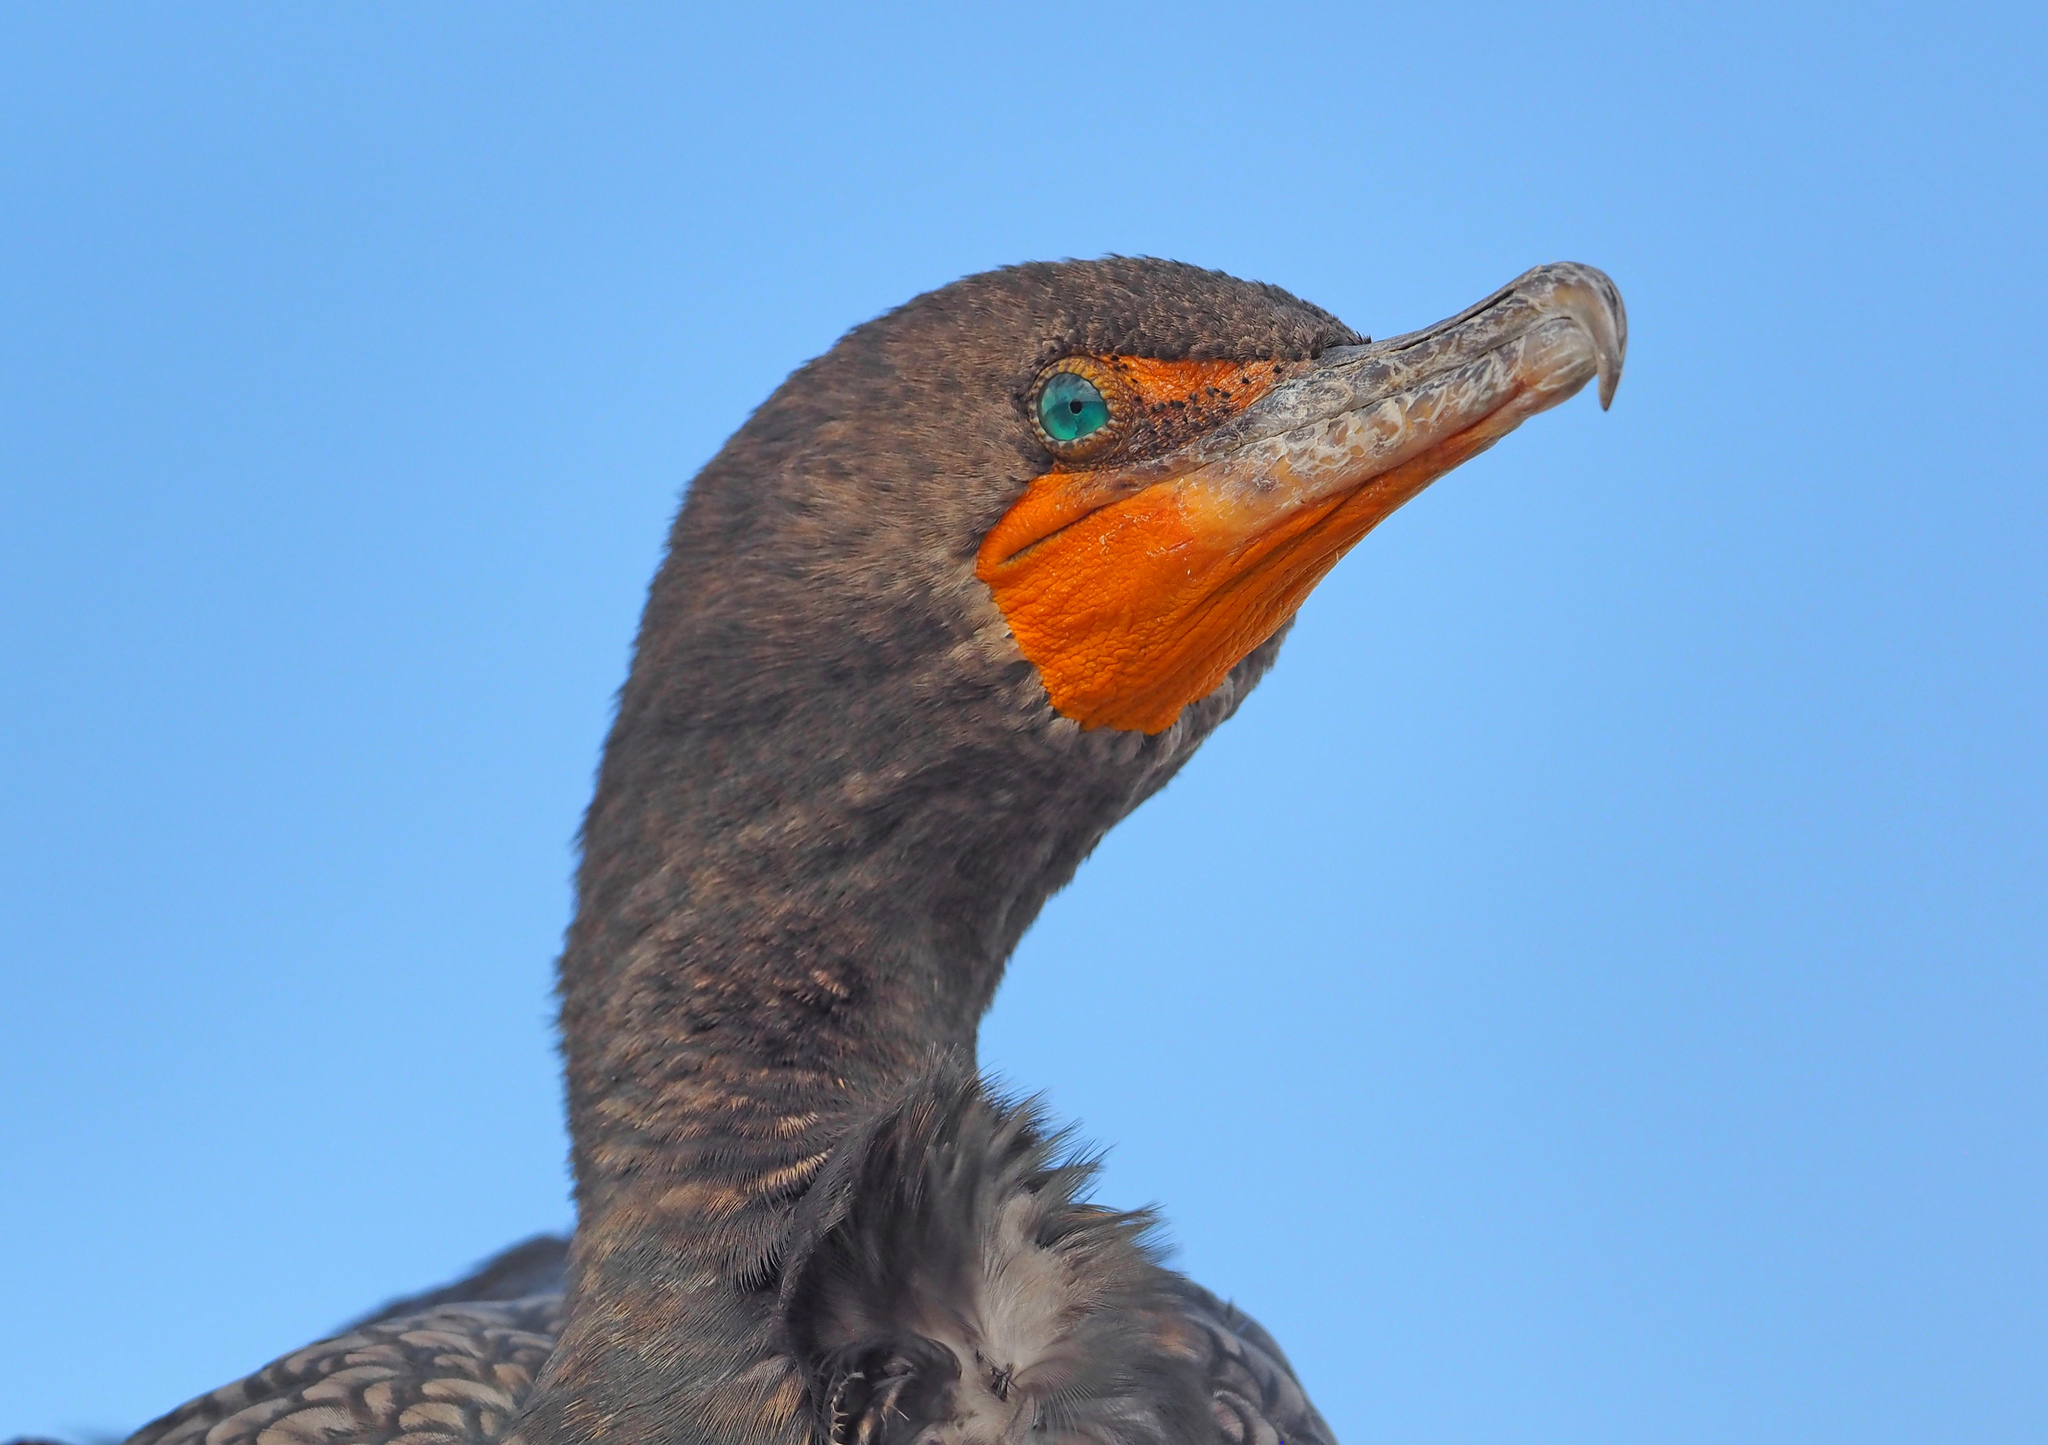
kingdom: Animalia
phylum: Chordata
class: Aves
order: Suliformes
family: Phalacrocoracidae
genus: Phalacrocorax
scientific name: Phalacrocorax auritus
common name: Double-crested cormorant
